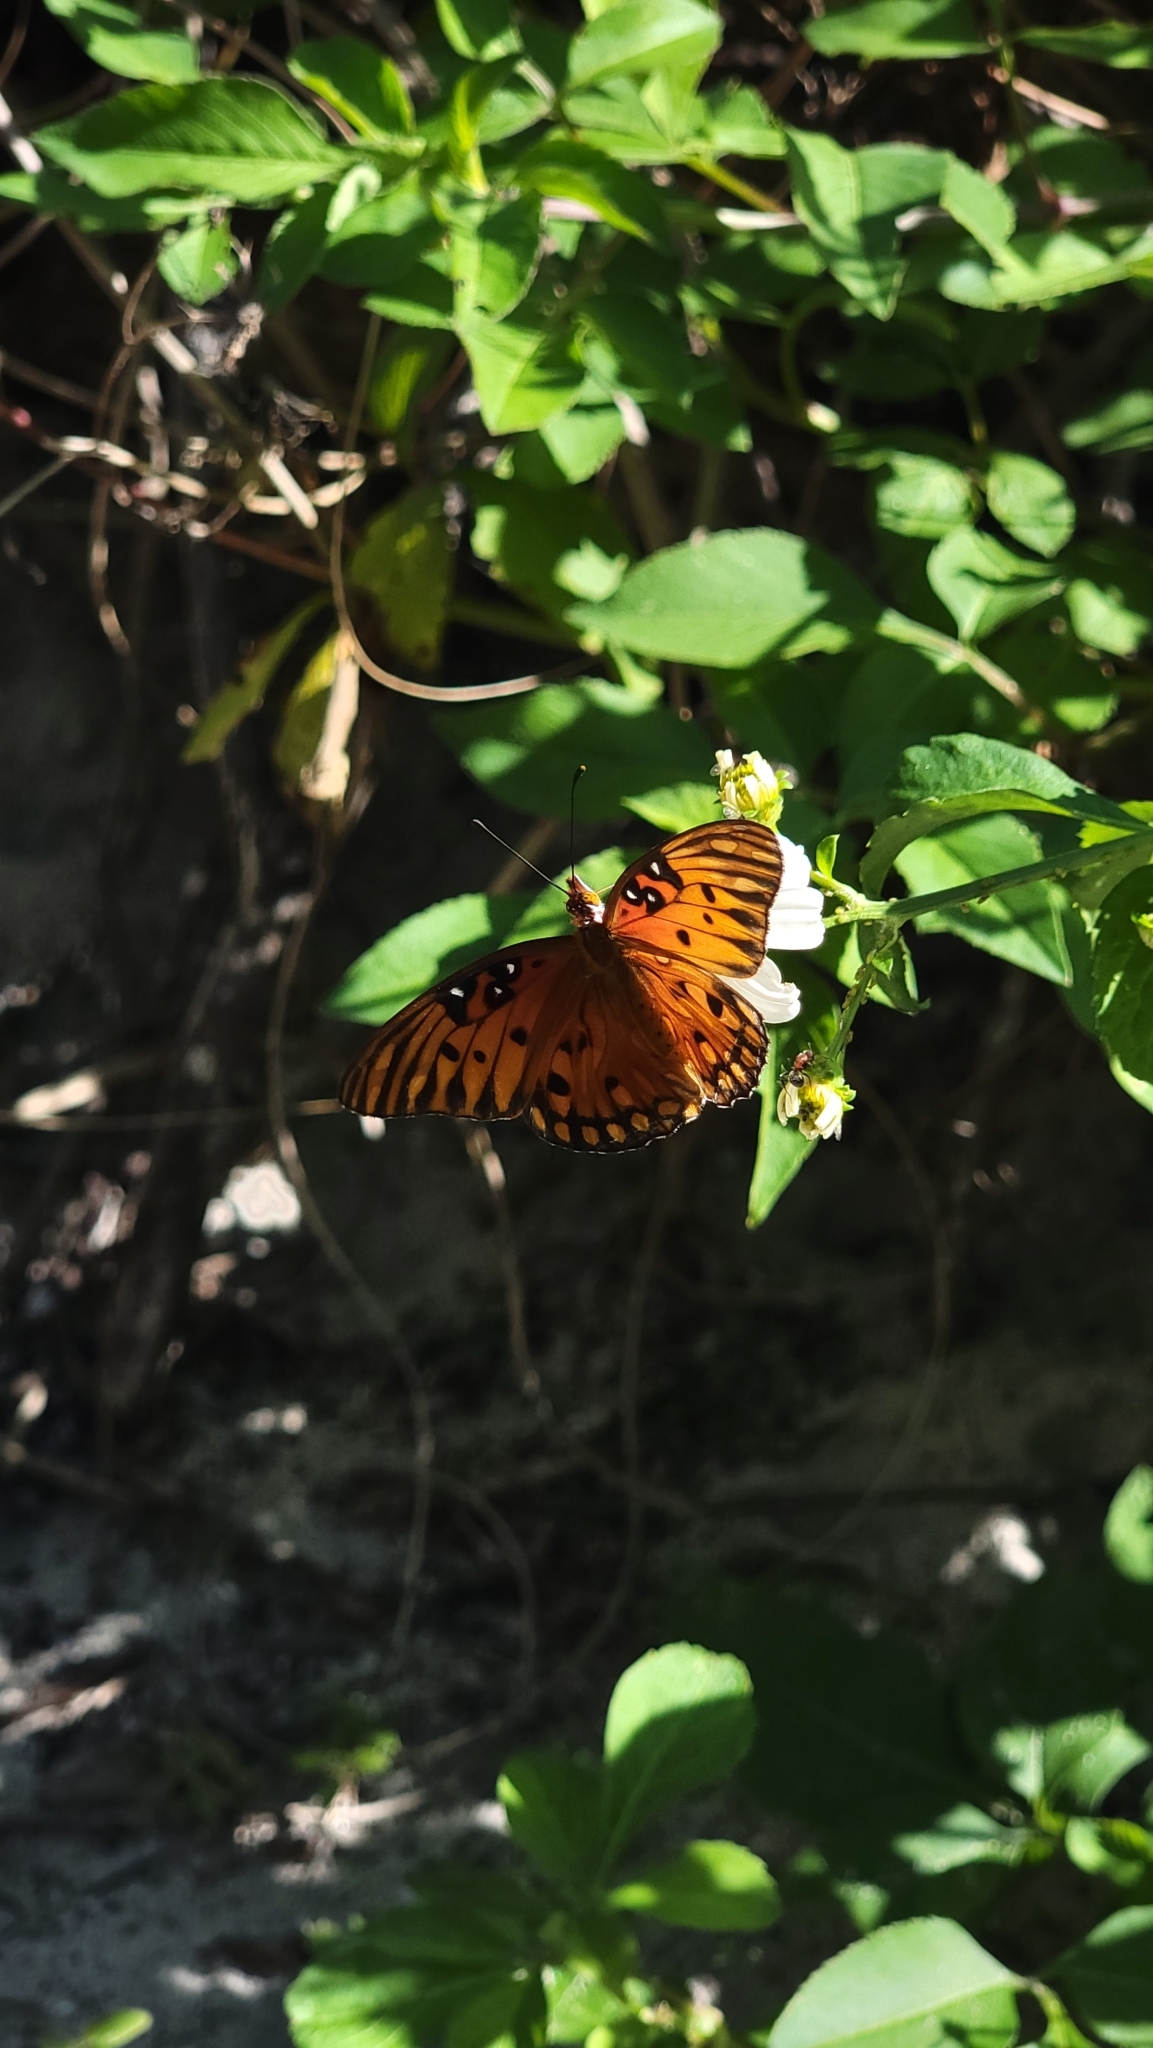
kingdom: Animalia
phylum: Arthropoda
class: Insecta
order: Lepidoptera
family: Nymphalidae
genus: Dione
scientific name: Dione vanillae
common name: Gulf fritillary
